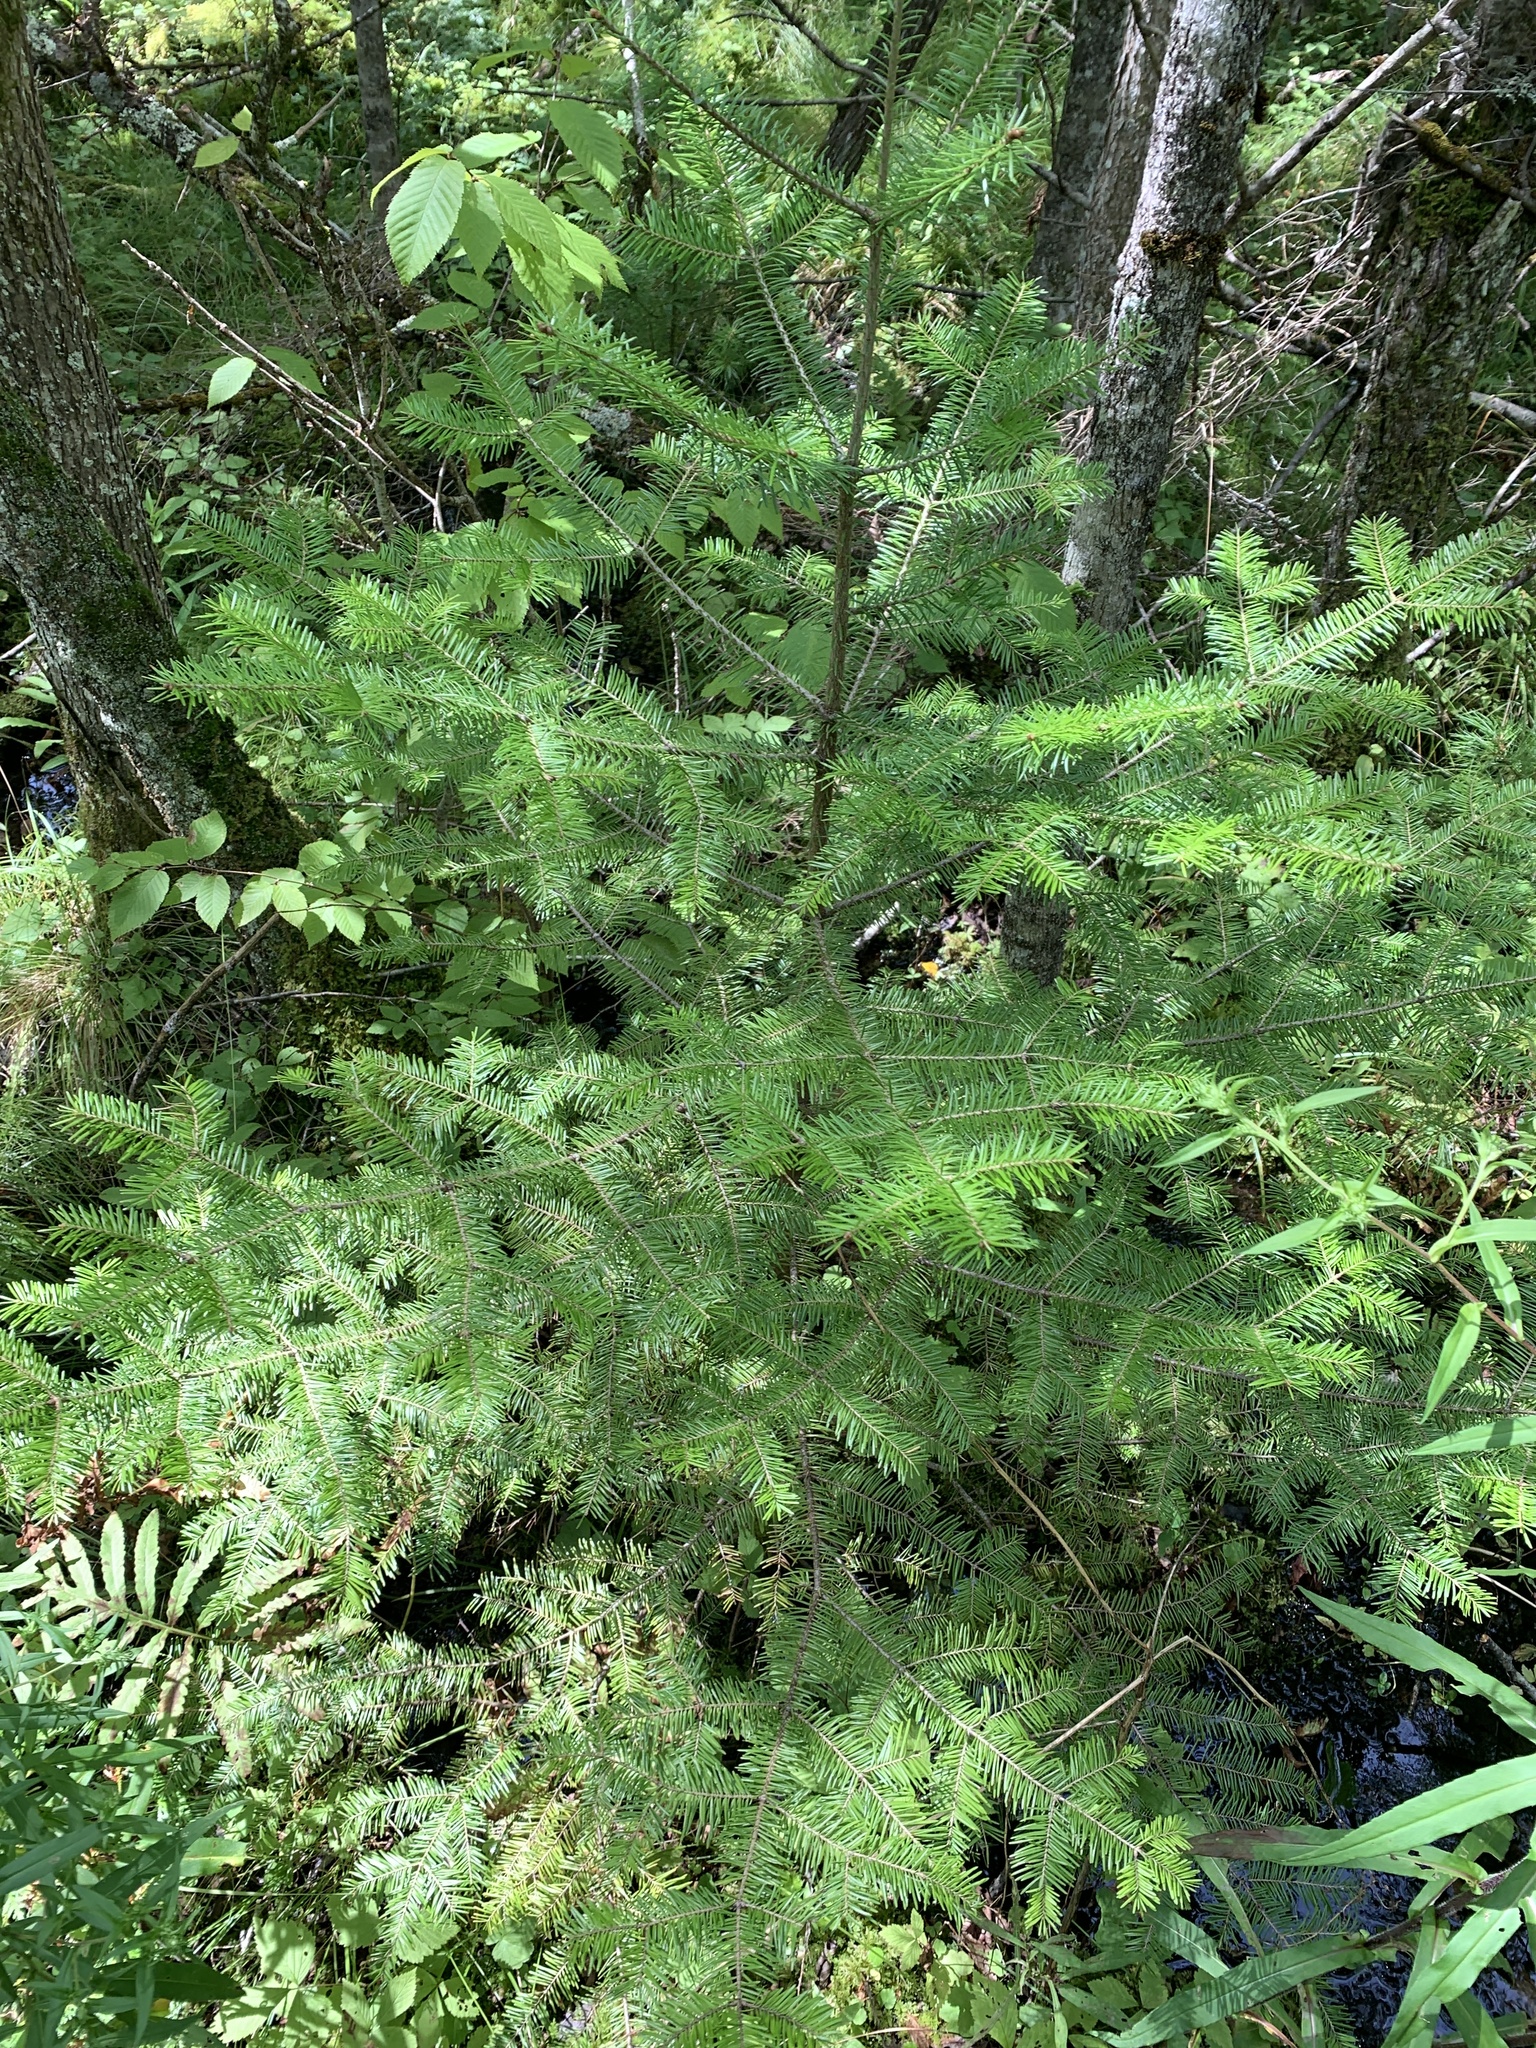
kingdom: Plantae
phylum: Tracheophyta
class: Pinopsida
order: Pinales
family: Pinaceae
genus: Abies
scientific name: Abies balsamea
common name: Balsam fir
